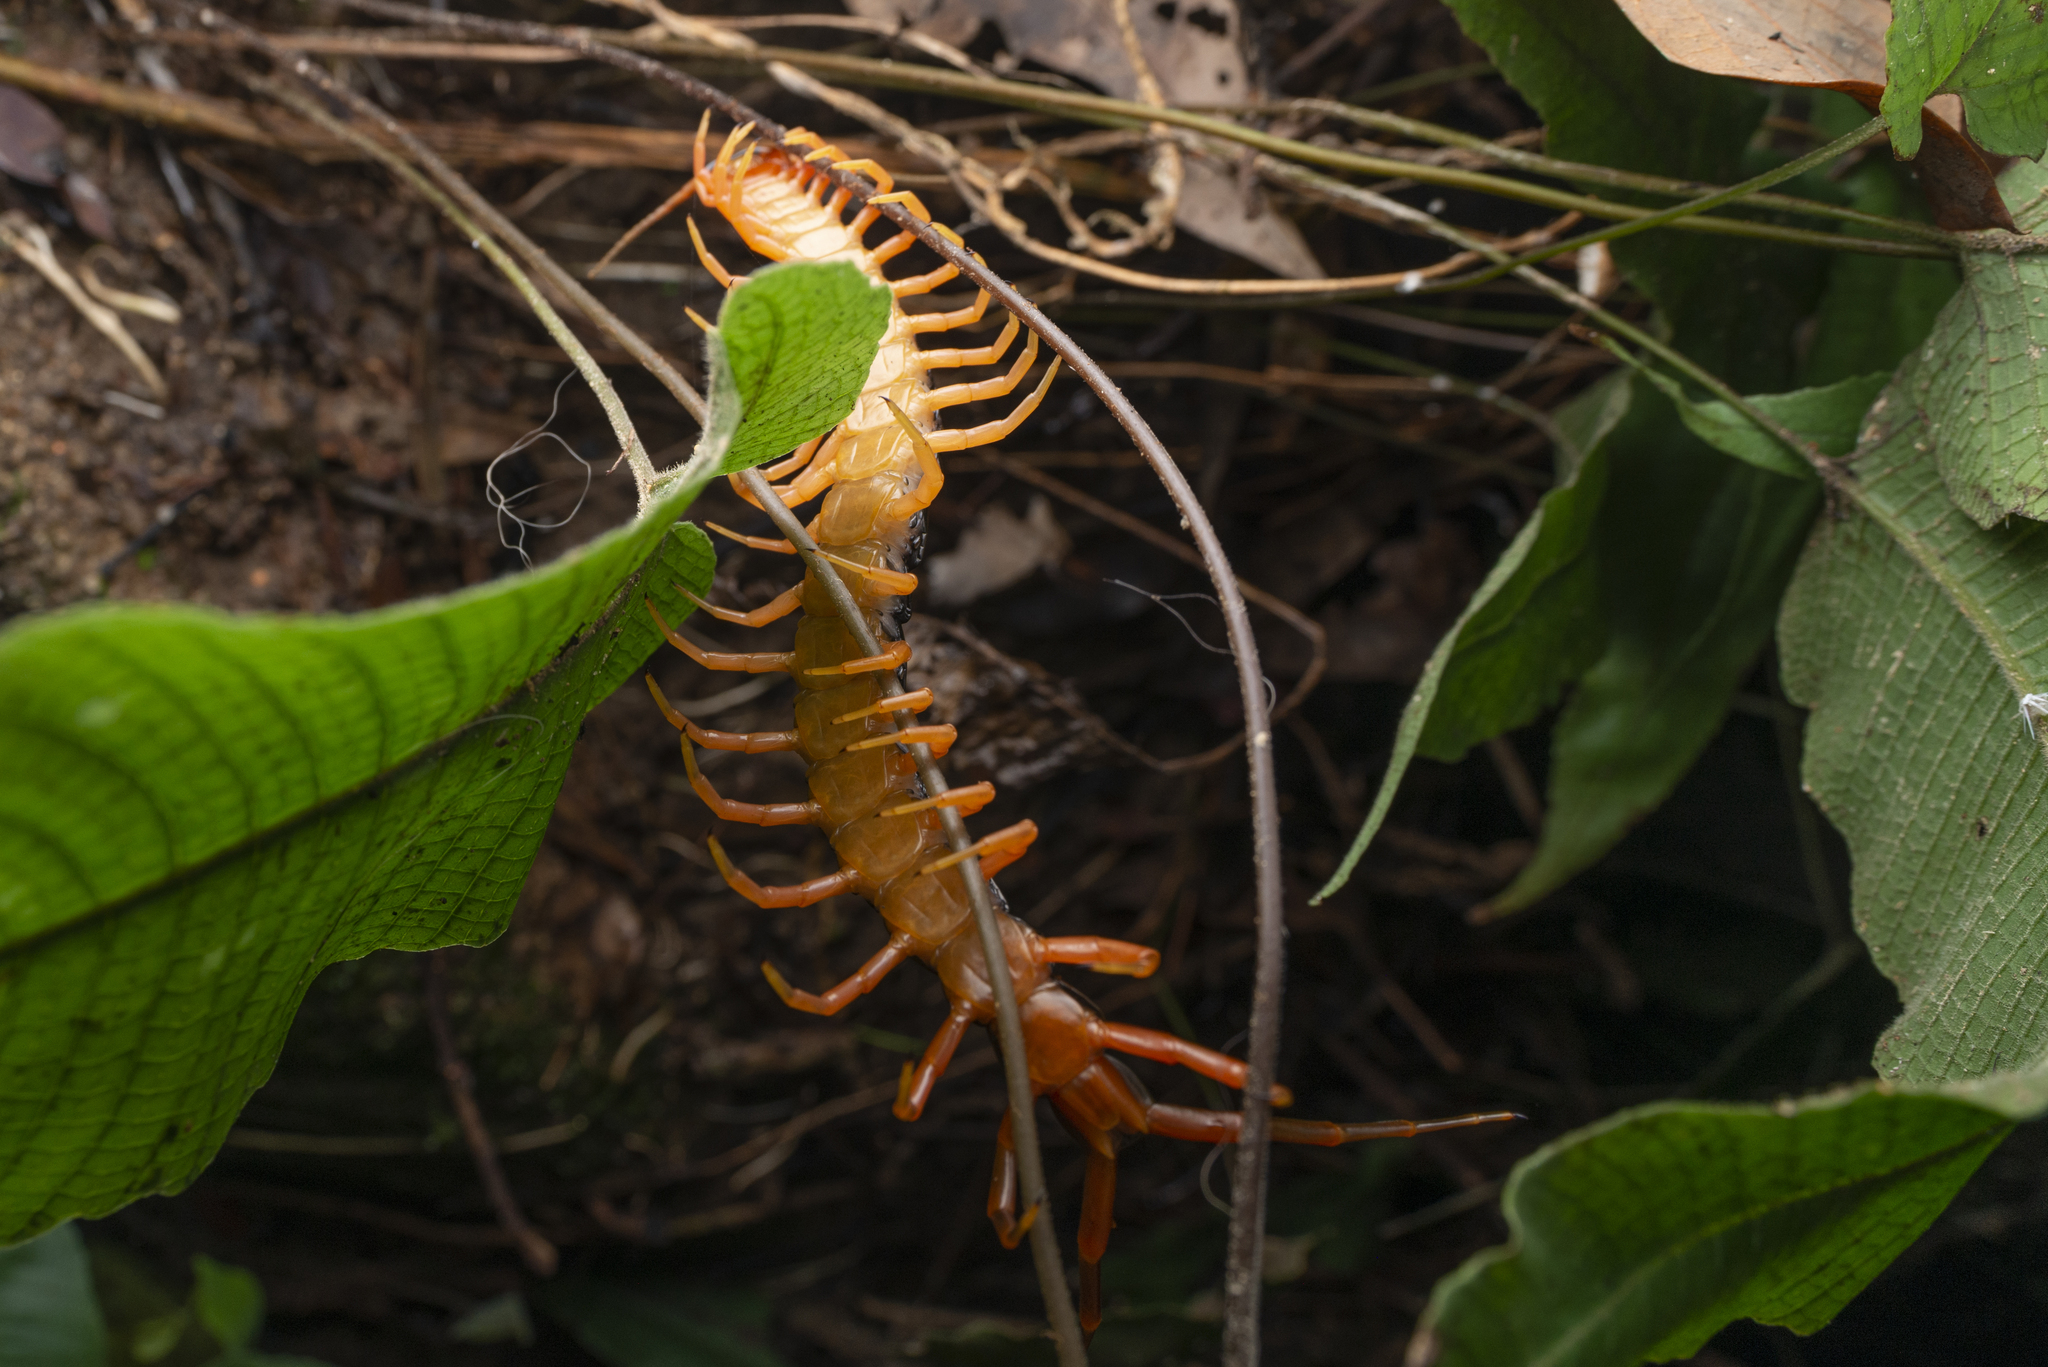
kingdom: Animalia
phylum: Arthropoda
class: Chilopoda
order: Scolopendromorpha
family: Scolopendridae
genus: Scolopendra
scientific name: Scolopendra hainana
